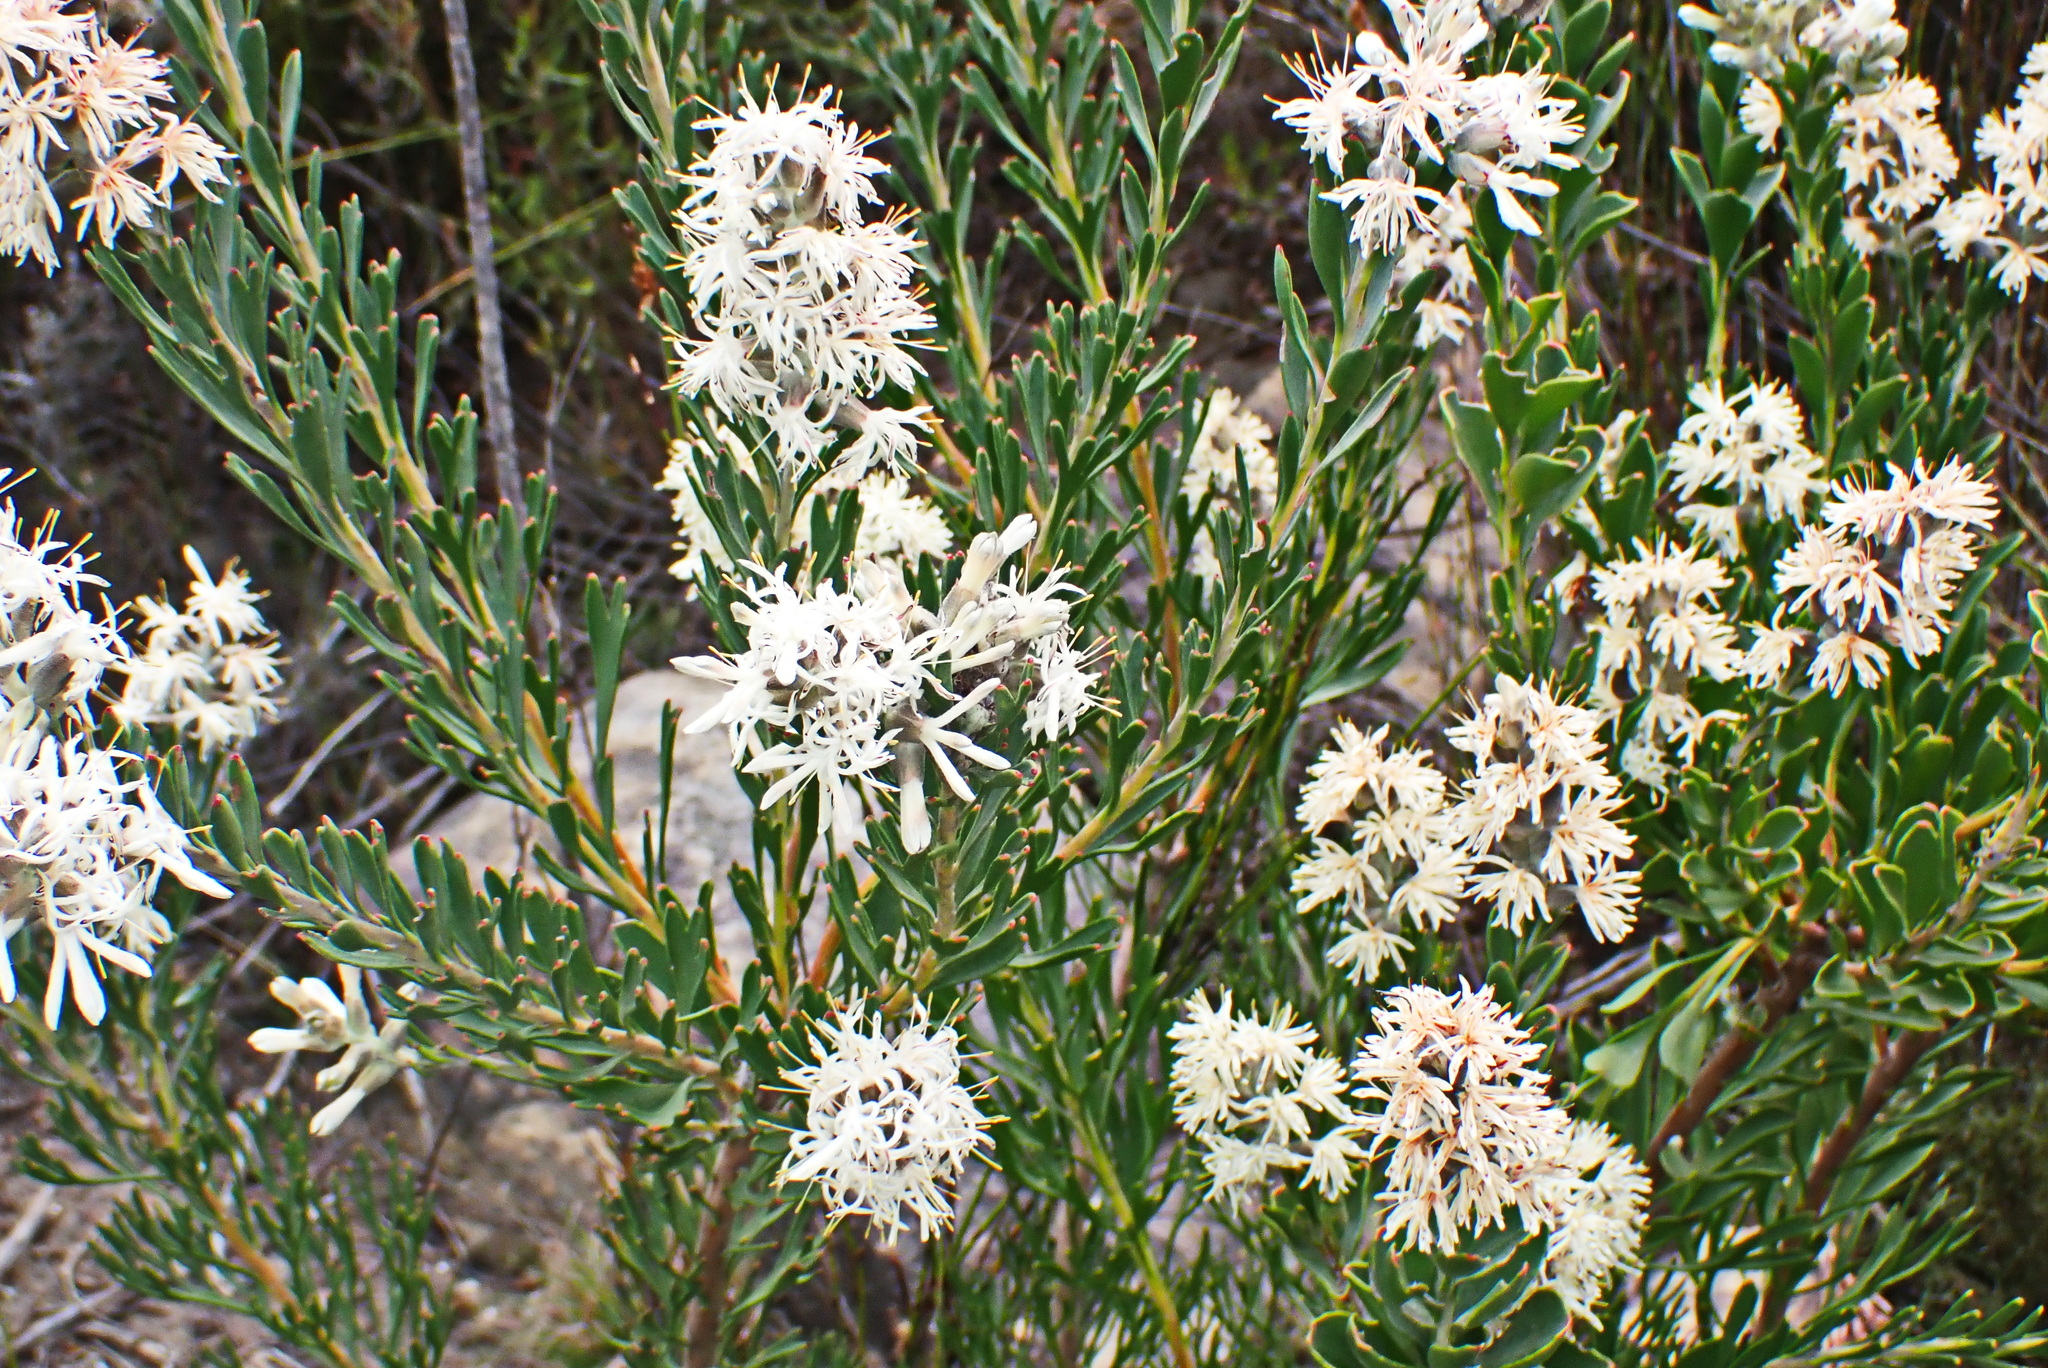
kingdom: Plantae
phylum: Tracheophyta
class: Magnoliopsida
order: Proteales
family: Proteaceae
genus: Paranomus
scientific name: Paranomus dregei
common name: Scented sceptre
